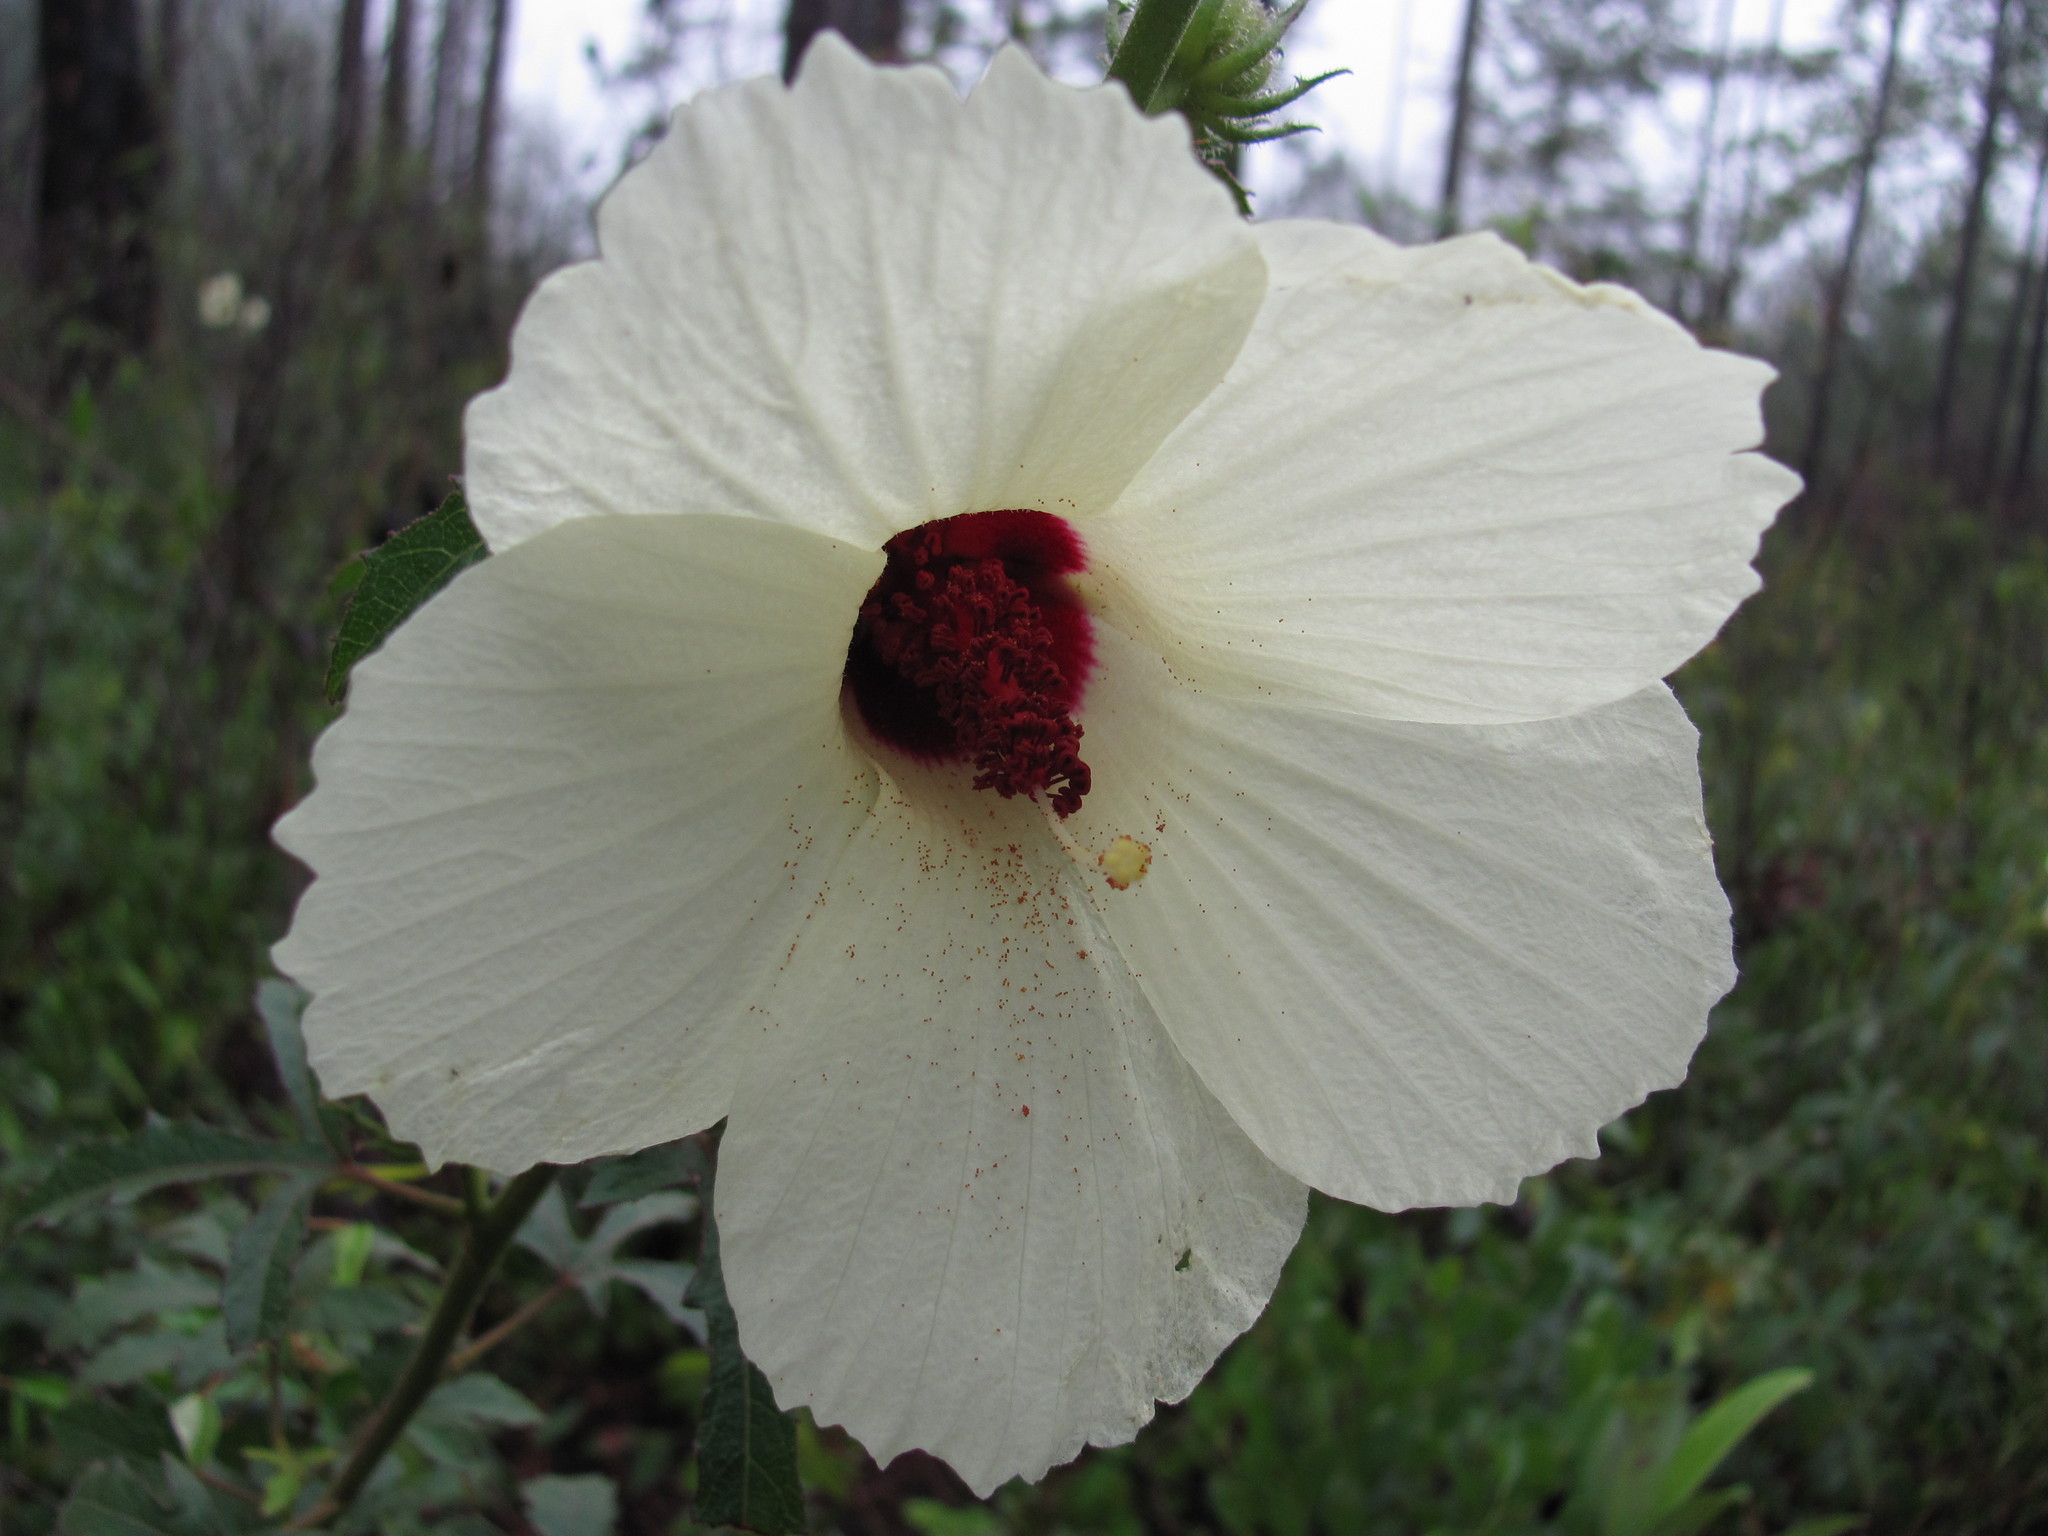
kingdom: Plantae
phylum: Tracheophyta
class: Magnoliopsida
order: Malvales
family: Malvaceae
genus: Hibiscus
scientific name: Hibiscus aculeatus
